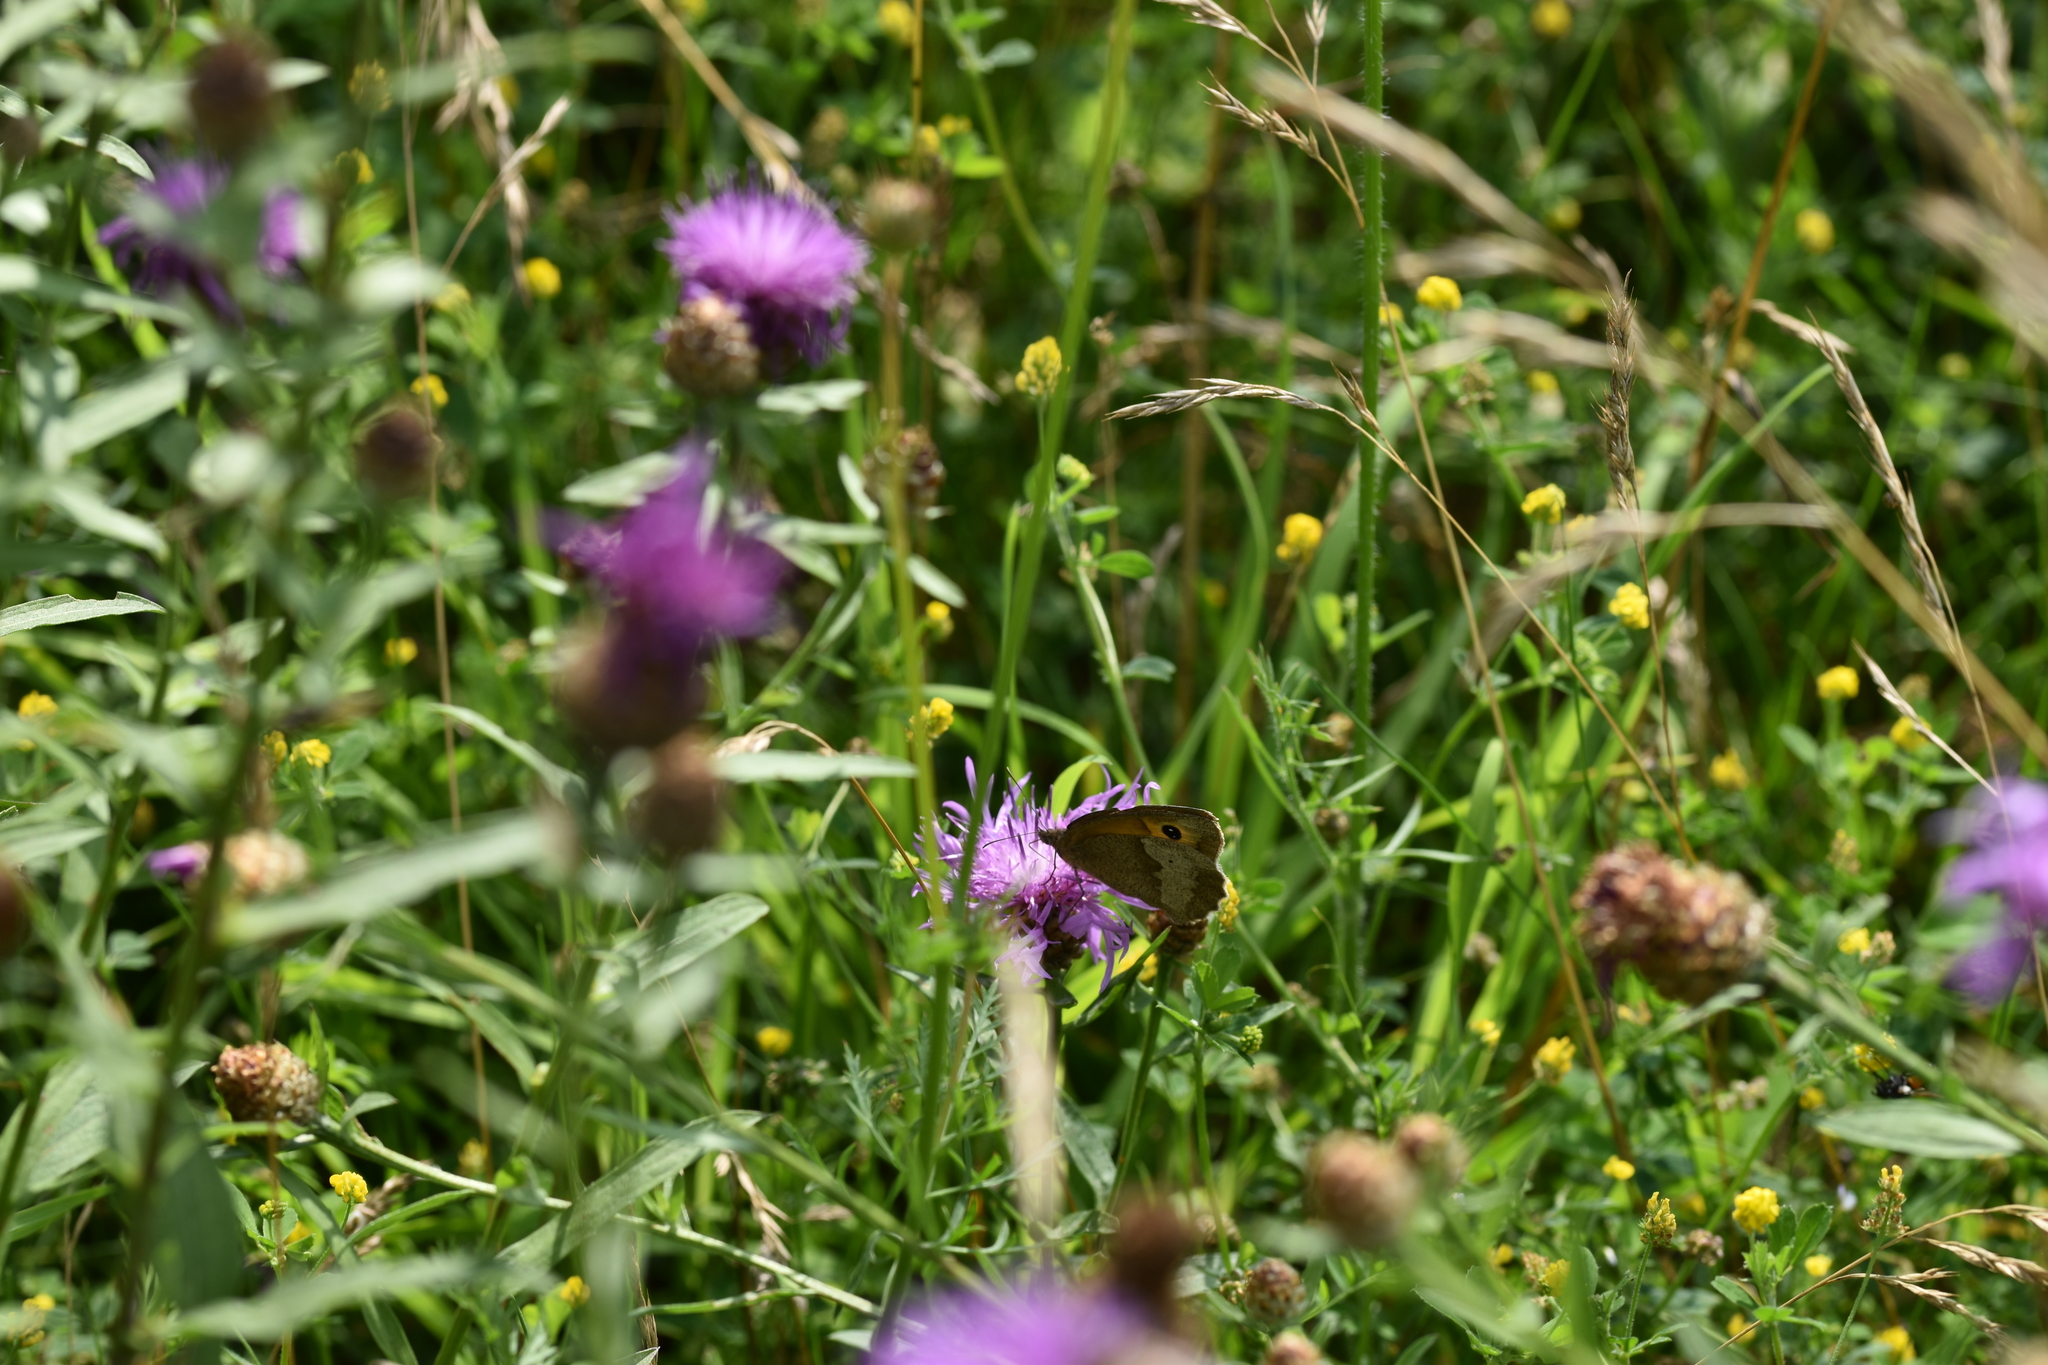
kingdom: Animalia
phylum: Arthropoda
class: Insecta
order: Lepidoptera
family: Nymphalidae
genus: Maniola
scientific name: Maniola jurtina
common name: Meadow brown
